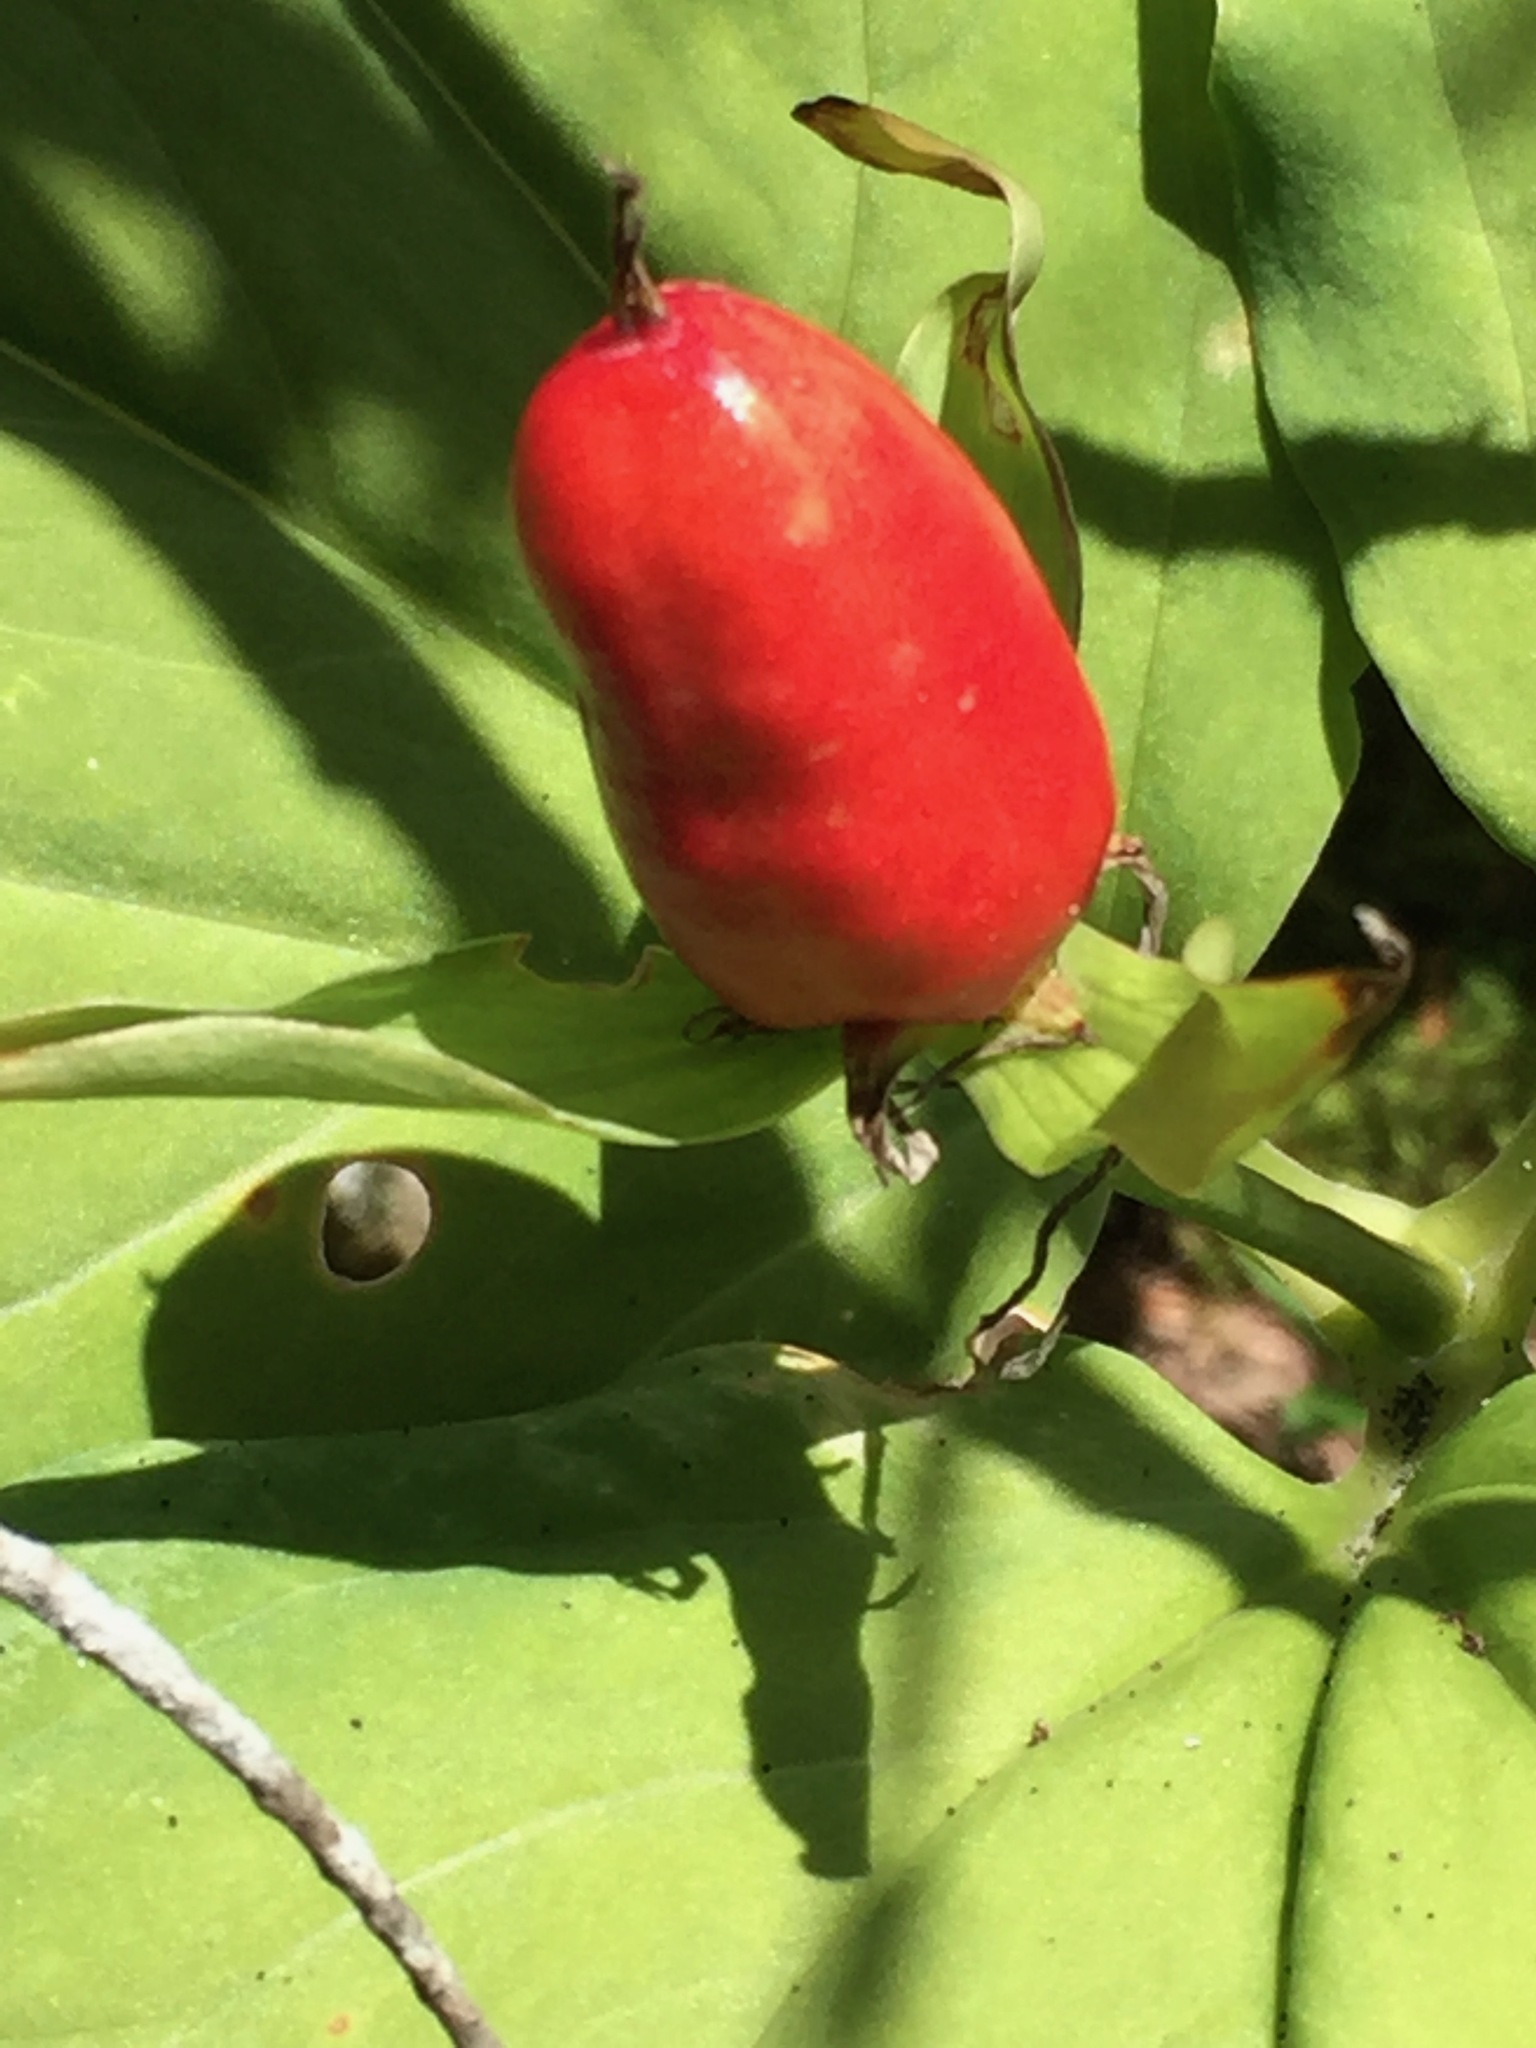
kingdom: Plantae
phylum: Tracheophyta
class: Liliopsida
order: Liliales
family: Melanthiaceae
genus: Trillium
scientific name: Trillium undulatum
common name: Paint trillium
